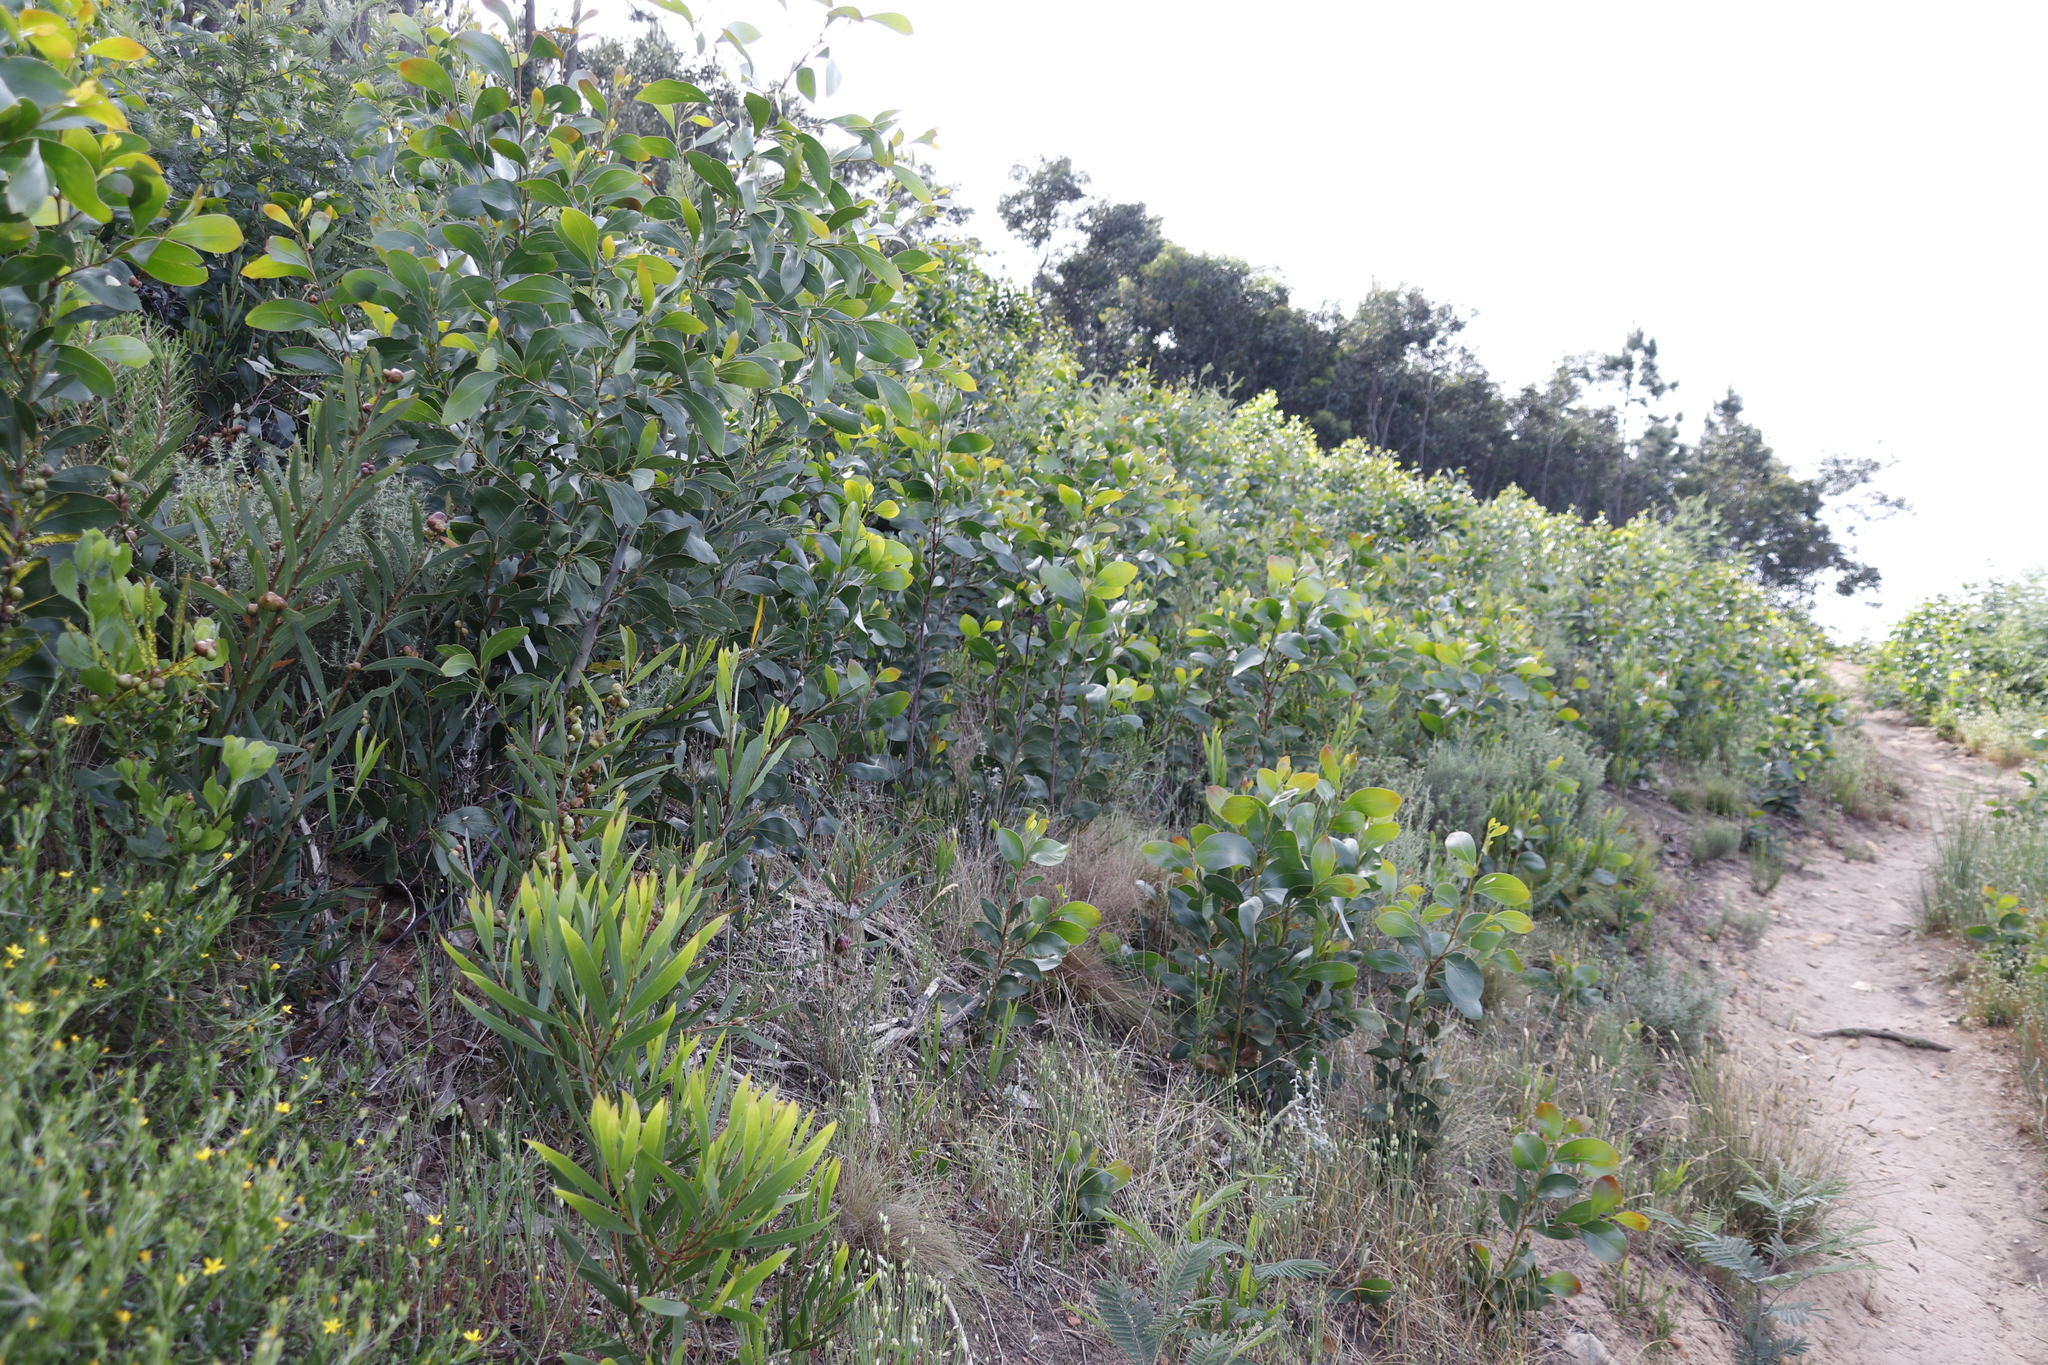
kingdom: Plantae
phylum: Tracheophyta
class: Magnoliopsida
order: Fabales
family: Fabaceae
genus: Acacia
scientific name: Acacia pycnantha
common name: Golden wattle
